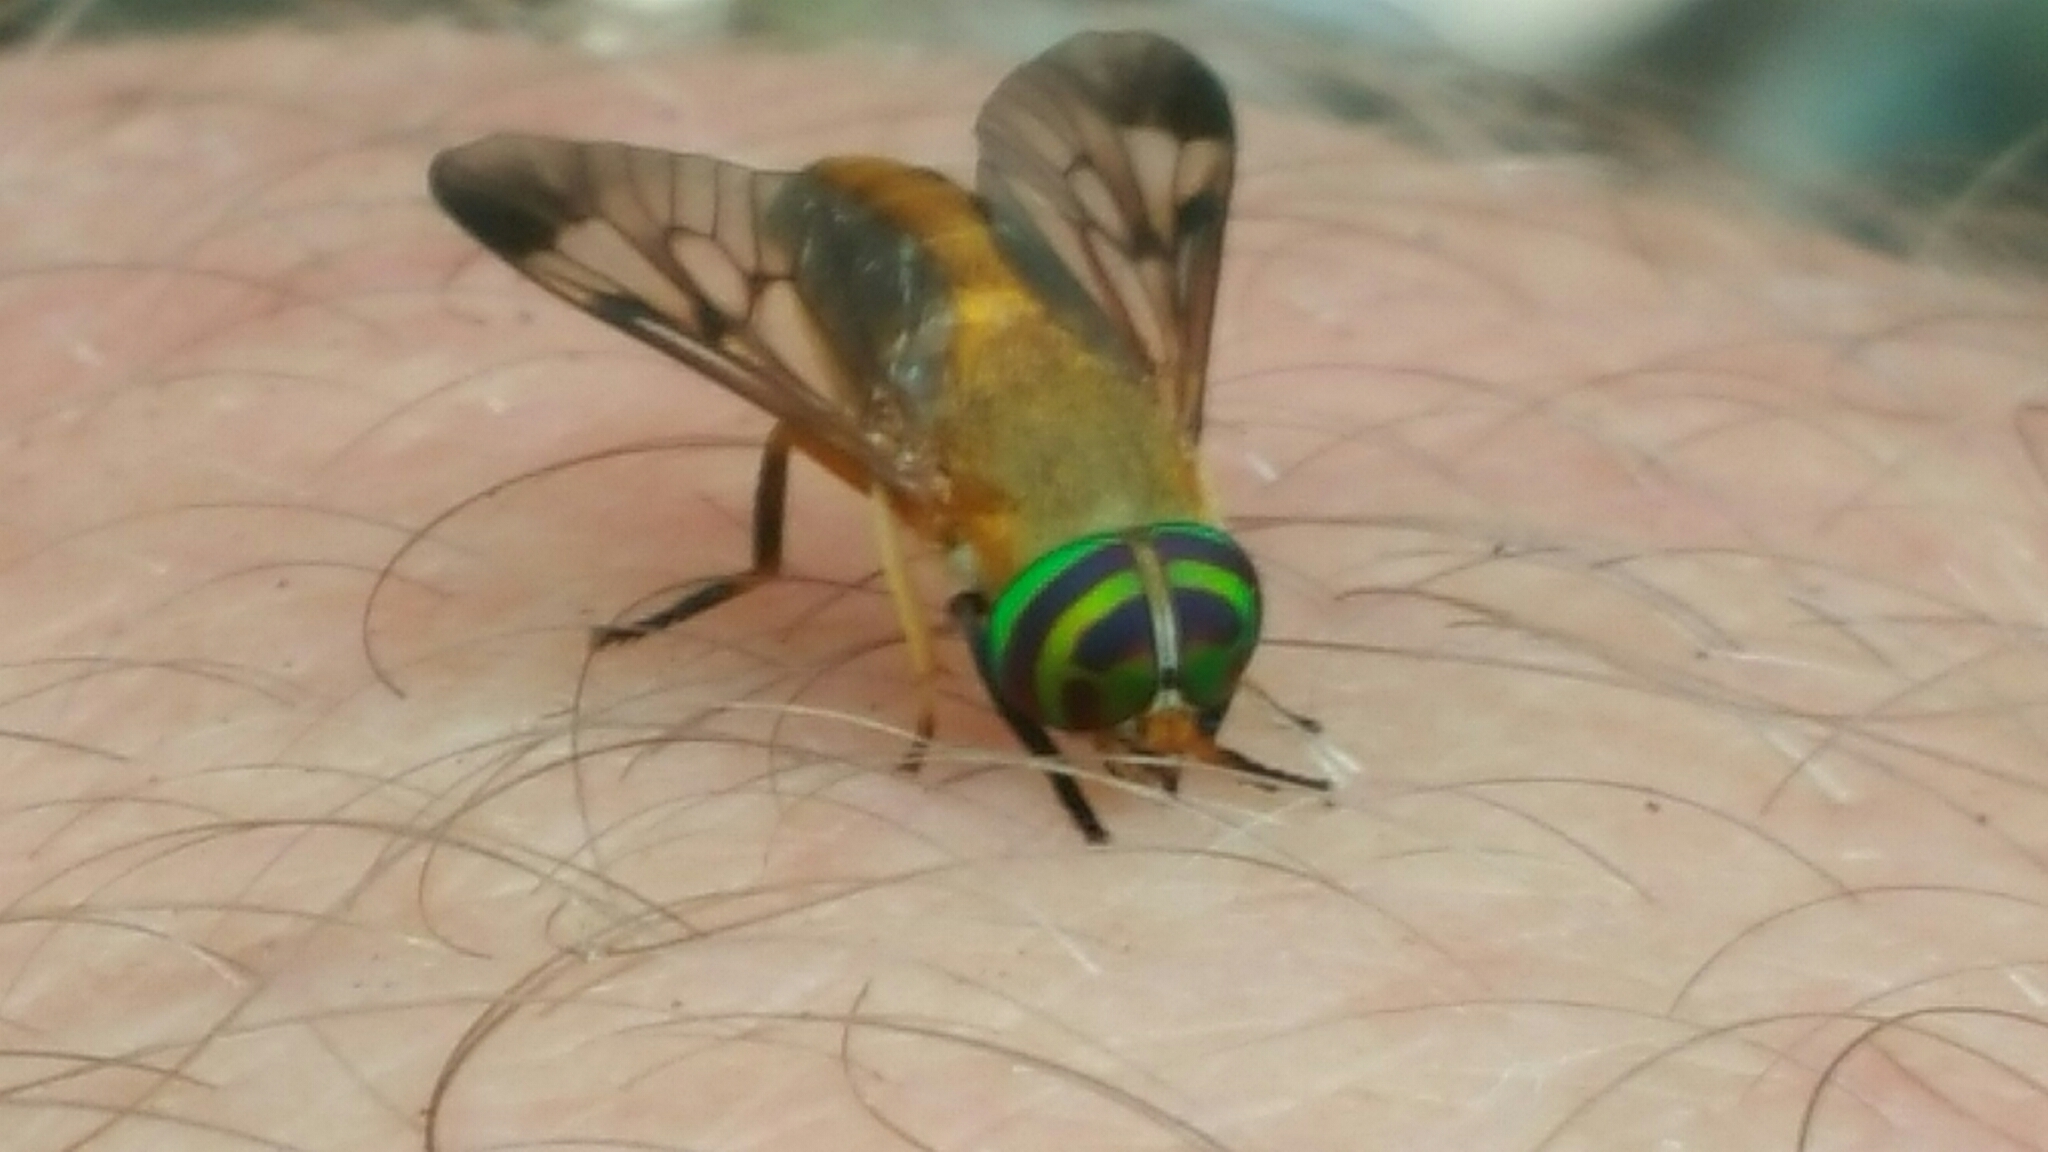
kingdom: Animalia
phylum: Arthropoda
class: Insecta
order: Diptera
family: Tabanidae
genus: Diachlorus
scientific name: Diachlorus ferrugatus
